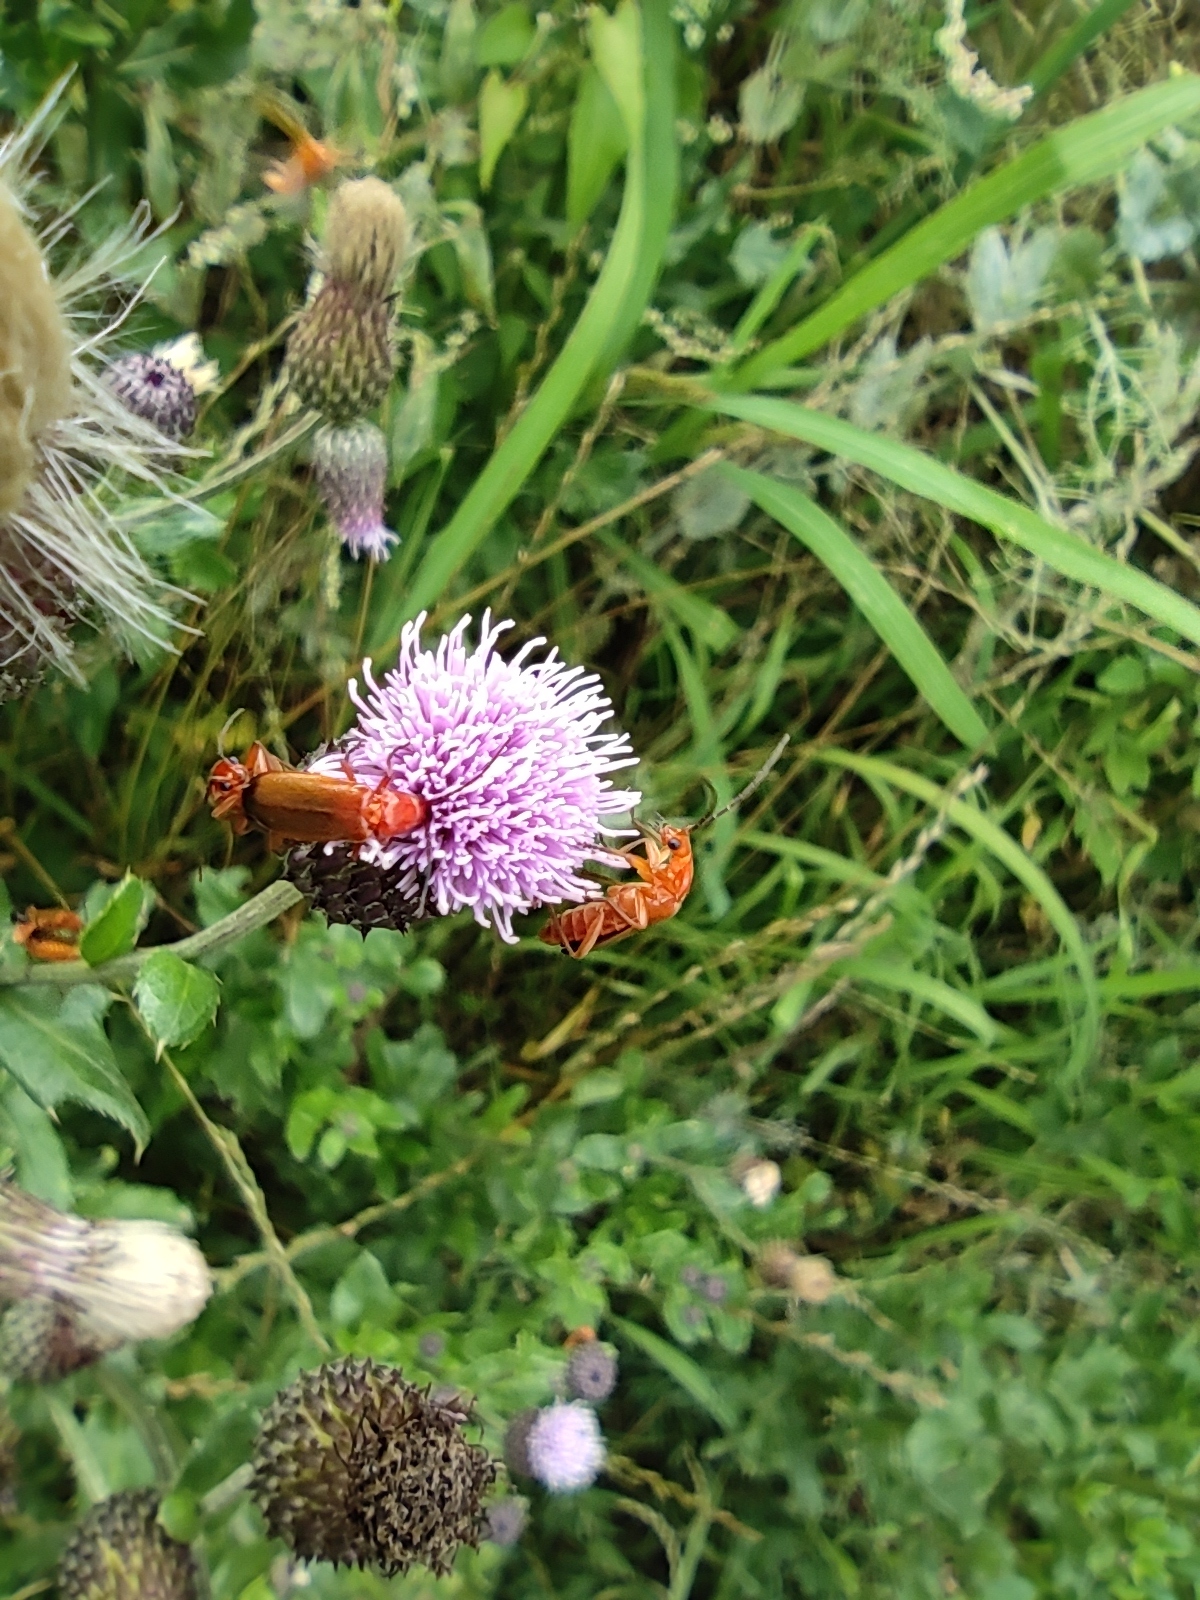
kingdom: Animalia
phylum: Arthropoda
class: Insecta
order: Coleoptera
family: Cantharidae
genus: Rhagonycha
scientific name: Rhagonycha fulva
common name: Common red soldier beetle
